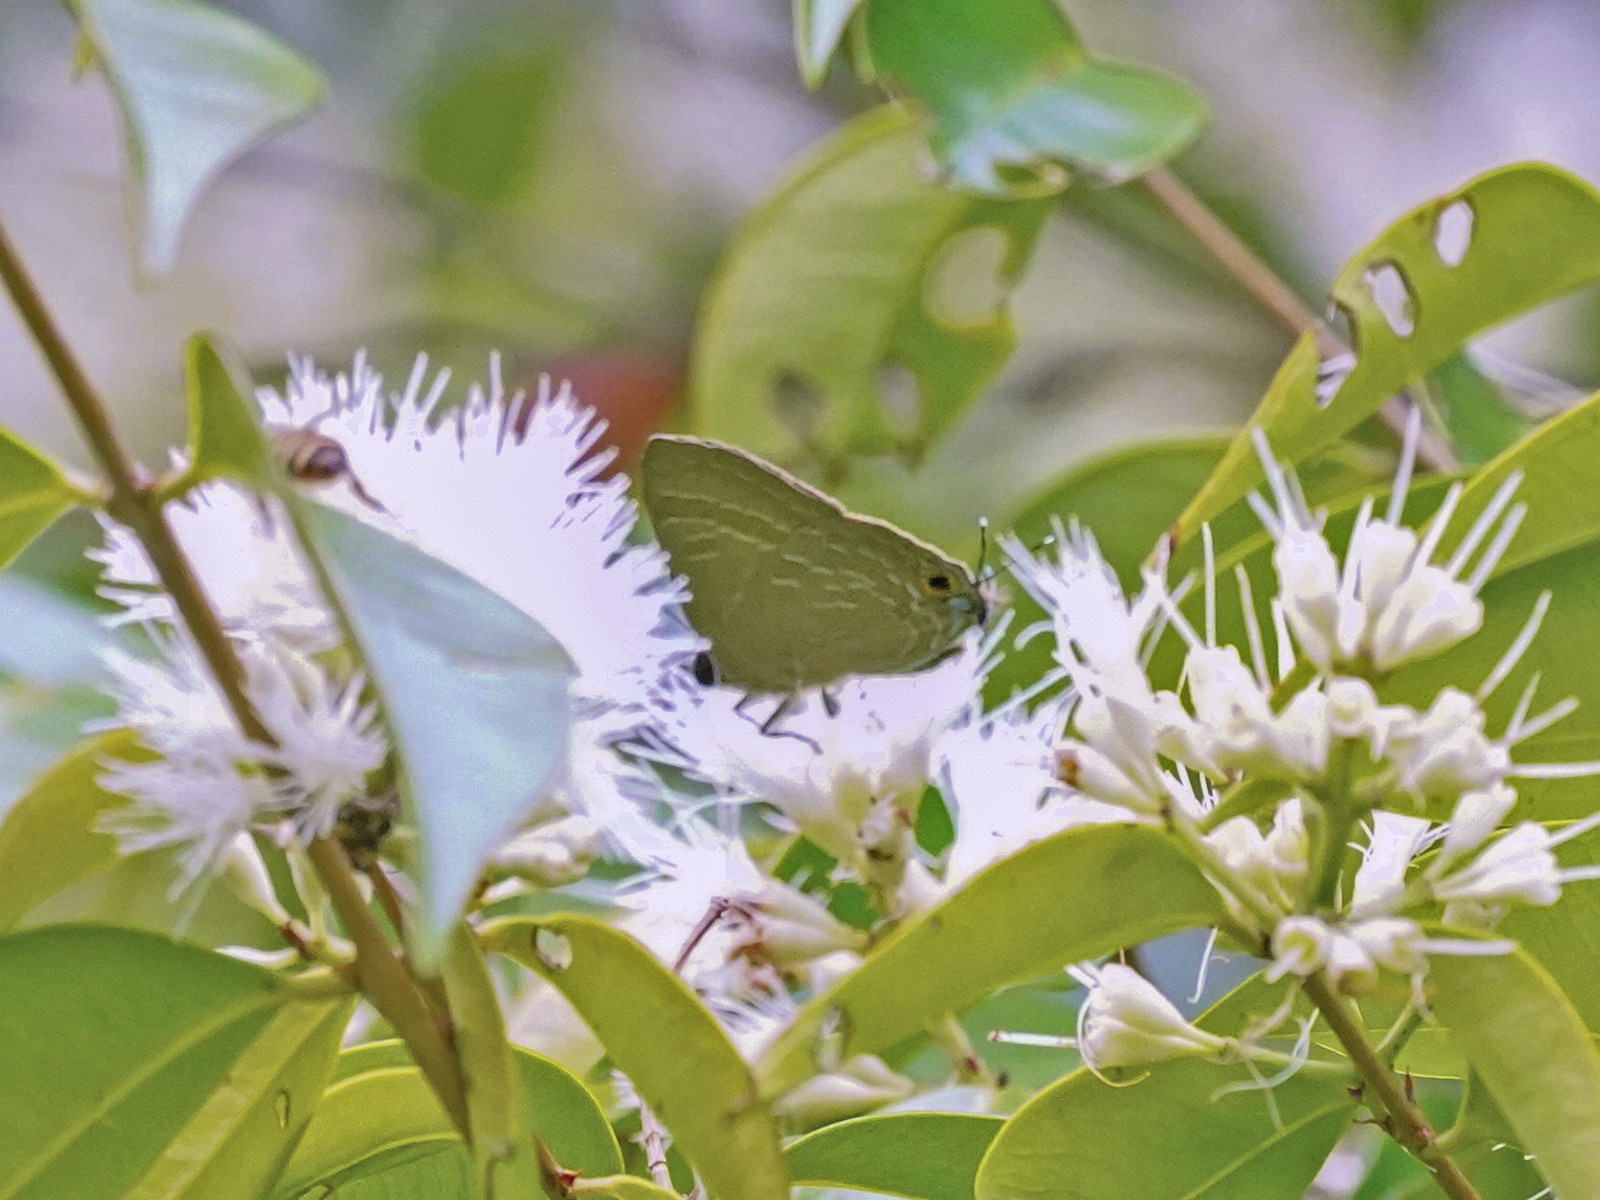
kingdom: Animalia
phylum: Arthropoda
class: Insecta
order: Lepidoptera
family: Lycaenidae
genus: Deudorix
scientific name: Deudorix epijarbas
